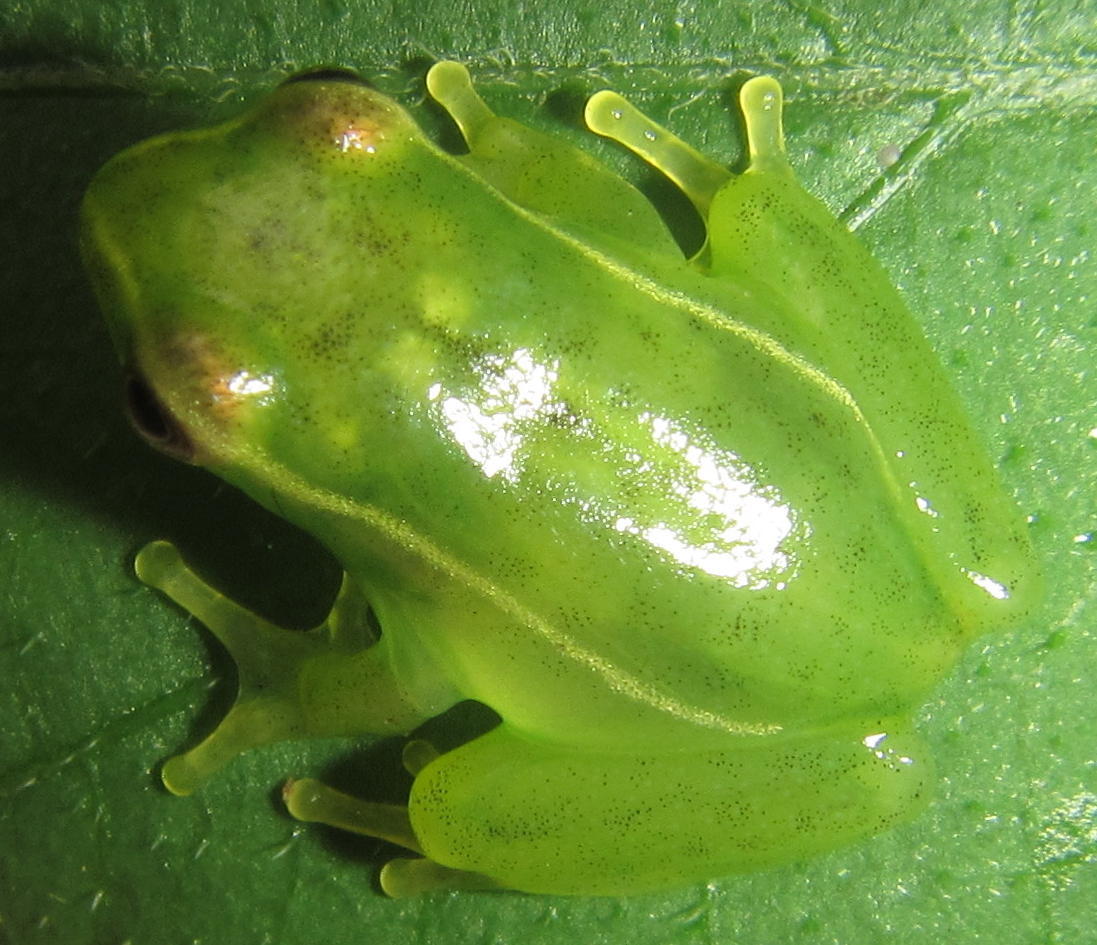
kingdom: Animalia
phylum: Chordata
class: Amphibia
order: Anura
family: Hyperoliidae
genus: Hyperolius
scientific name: Hyperolius pusillus
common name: Water lily reed frog
